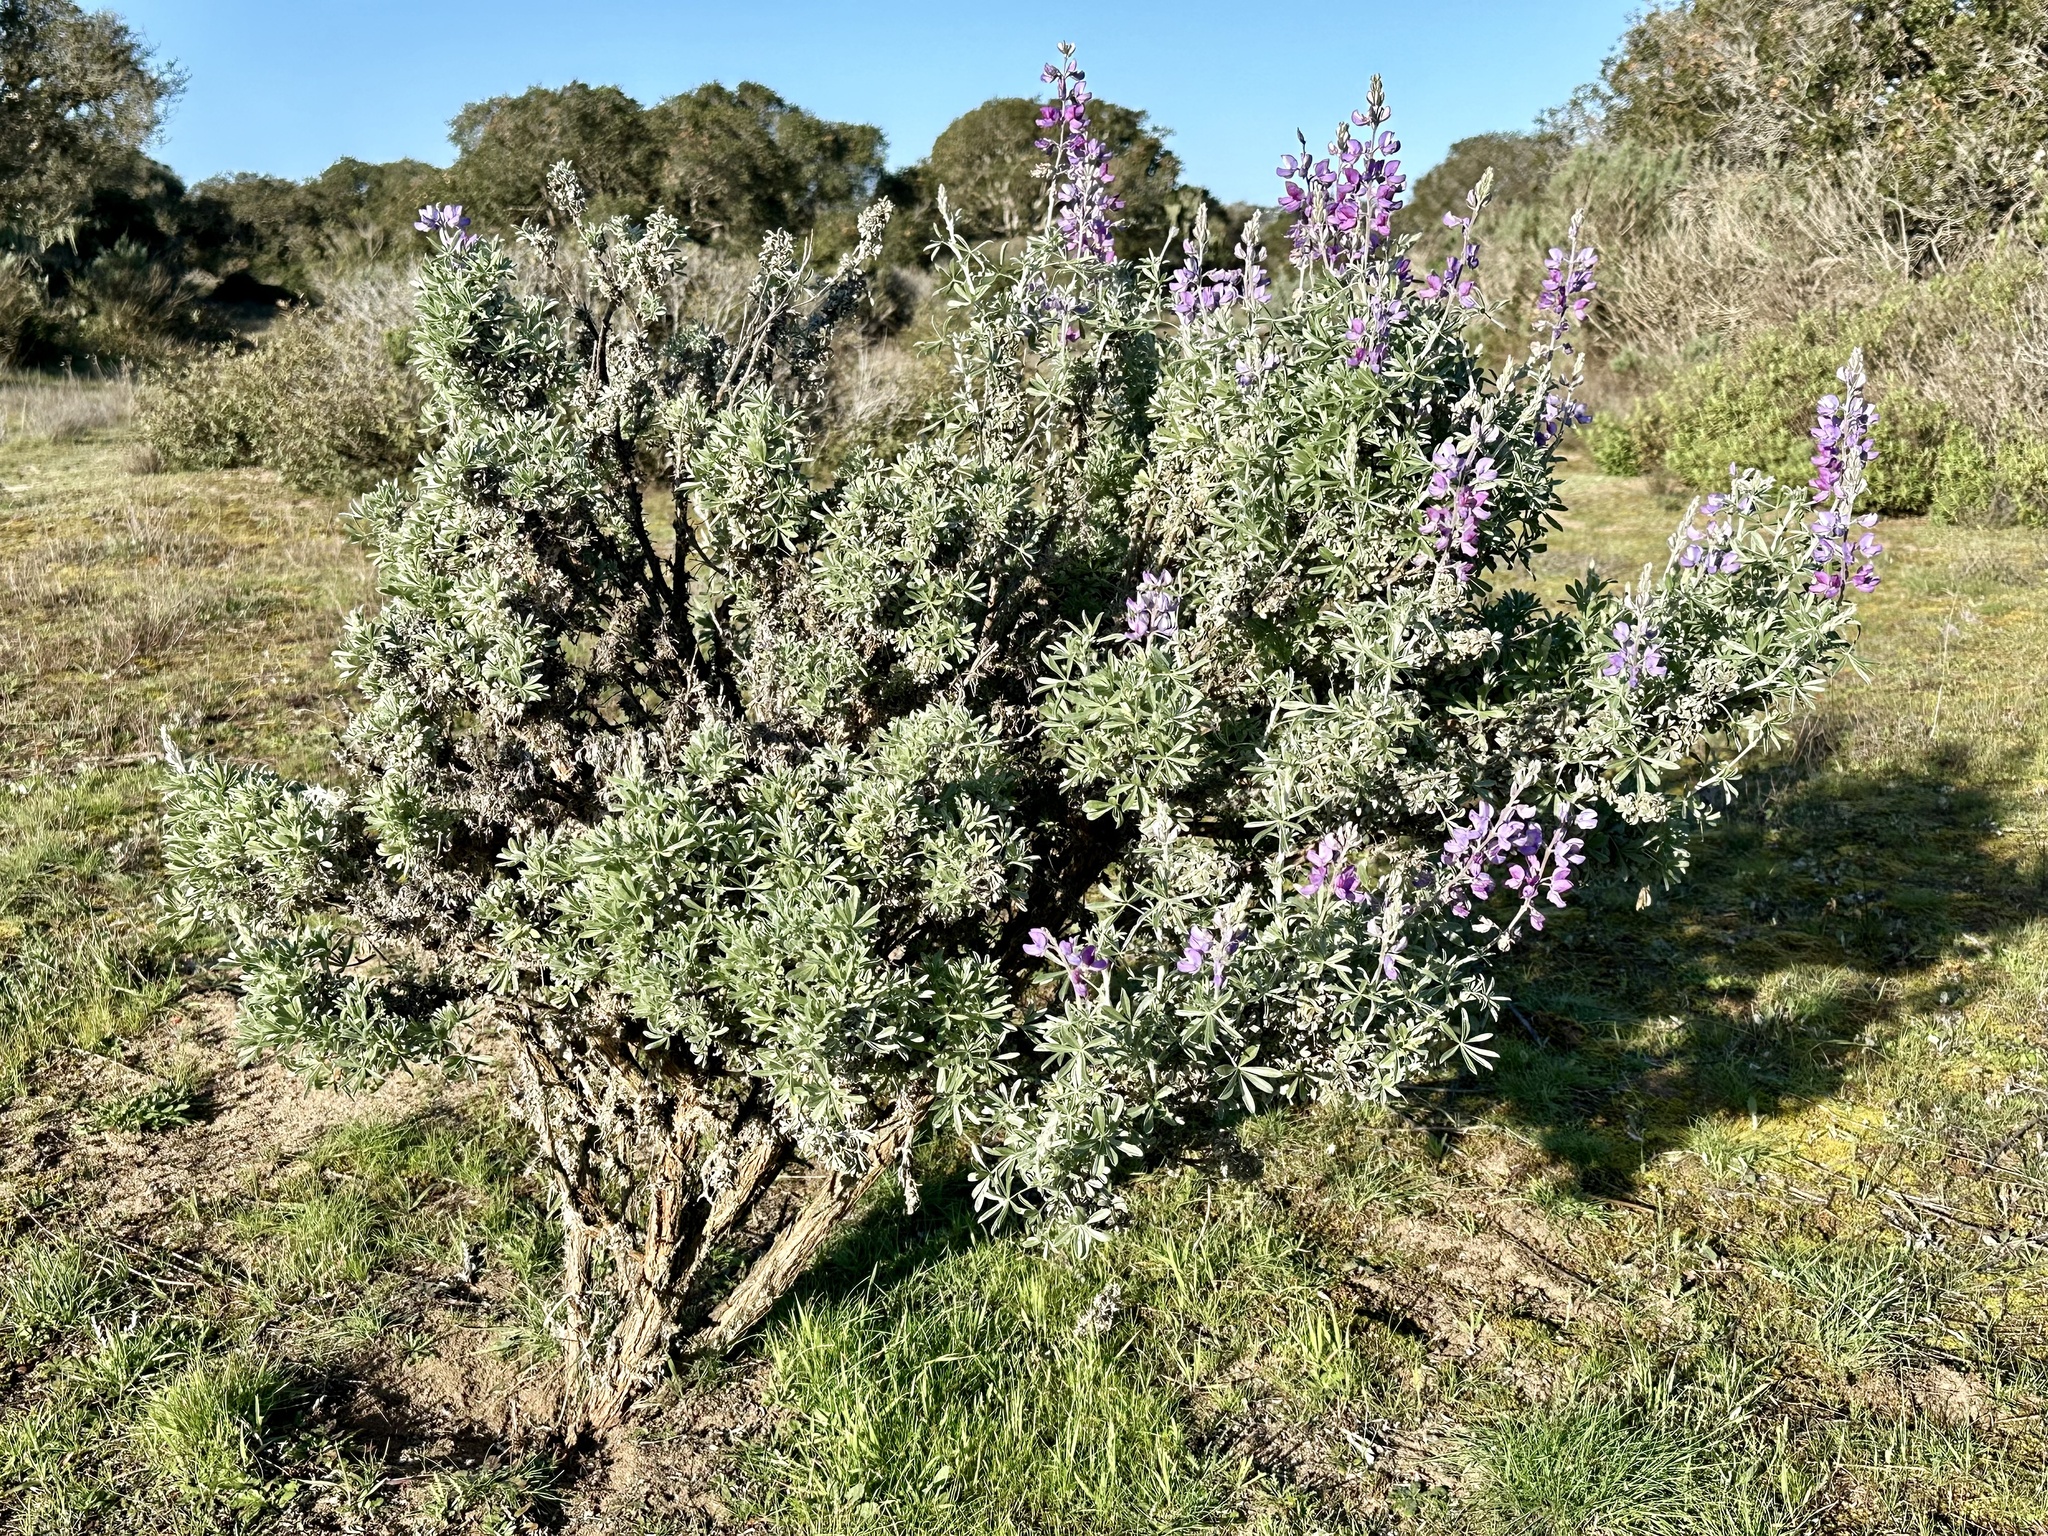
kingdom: Animalia
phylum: Arthropoda
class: Insecta
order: Diptera
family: Cecidomyiidae
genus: Dasineura
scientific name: Dasineura lupinorum
